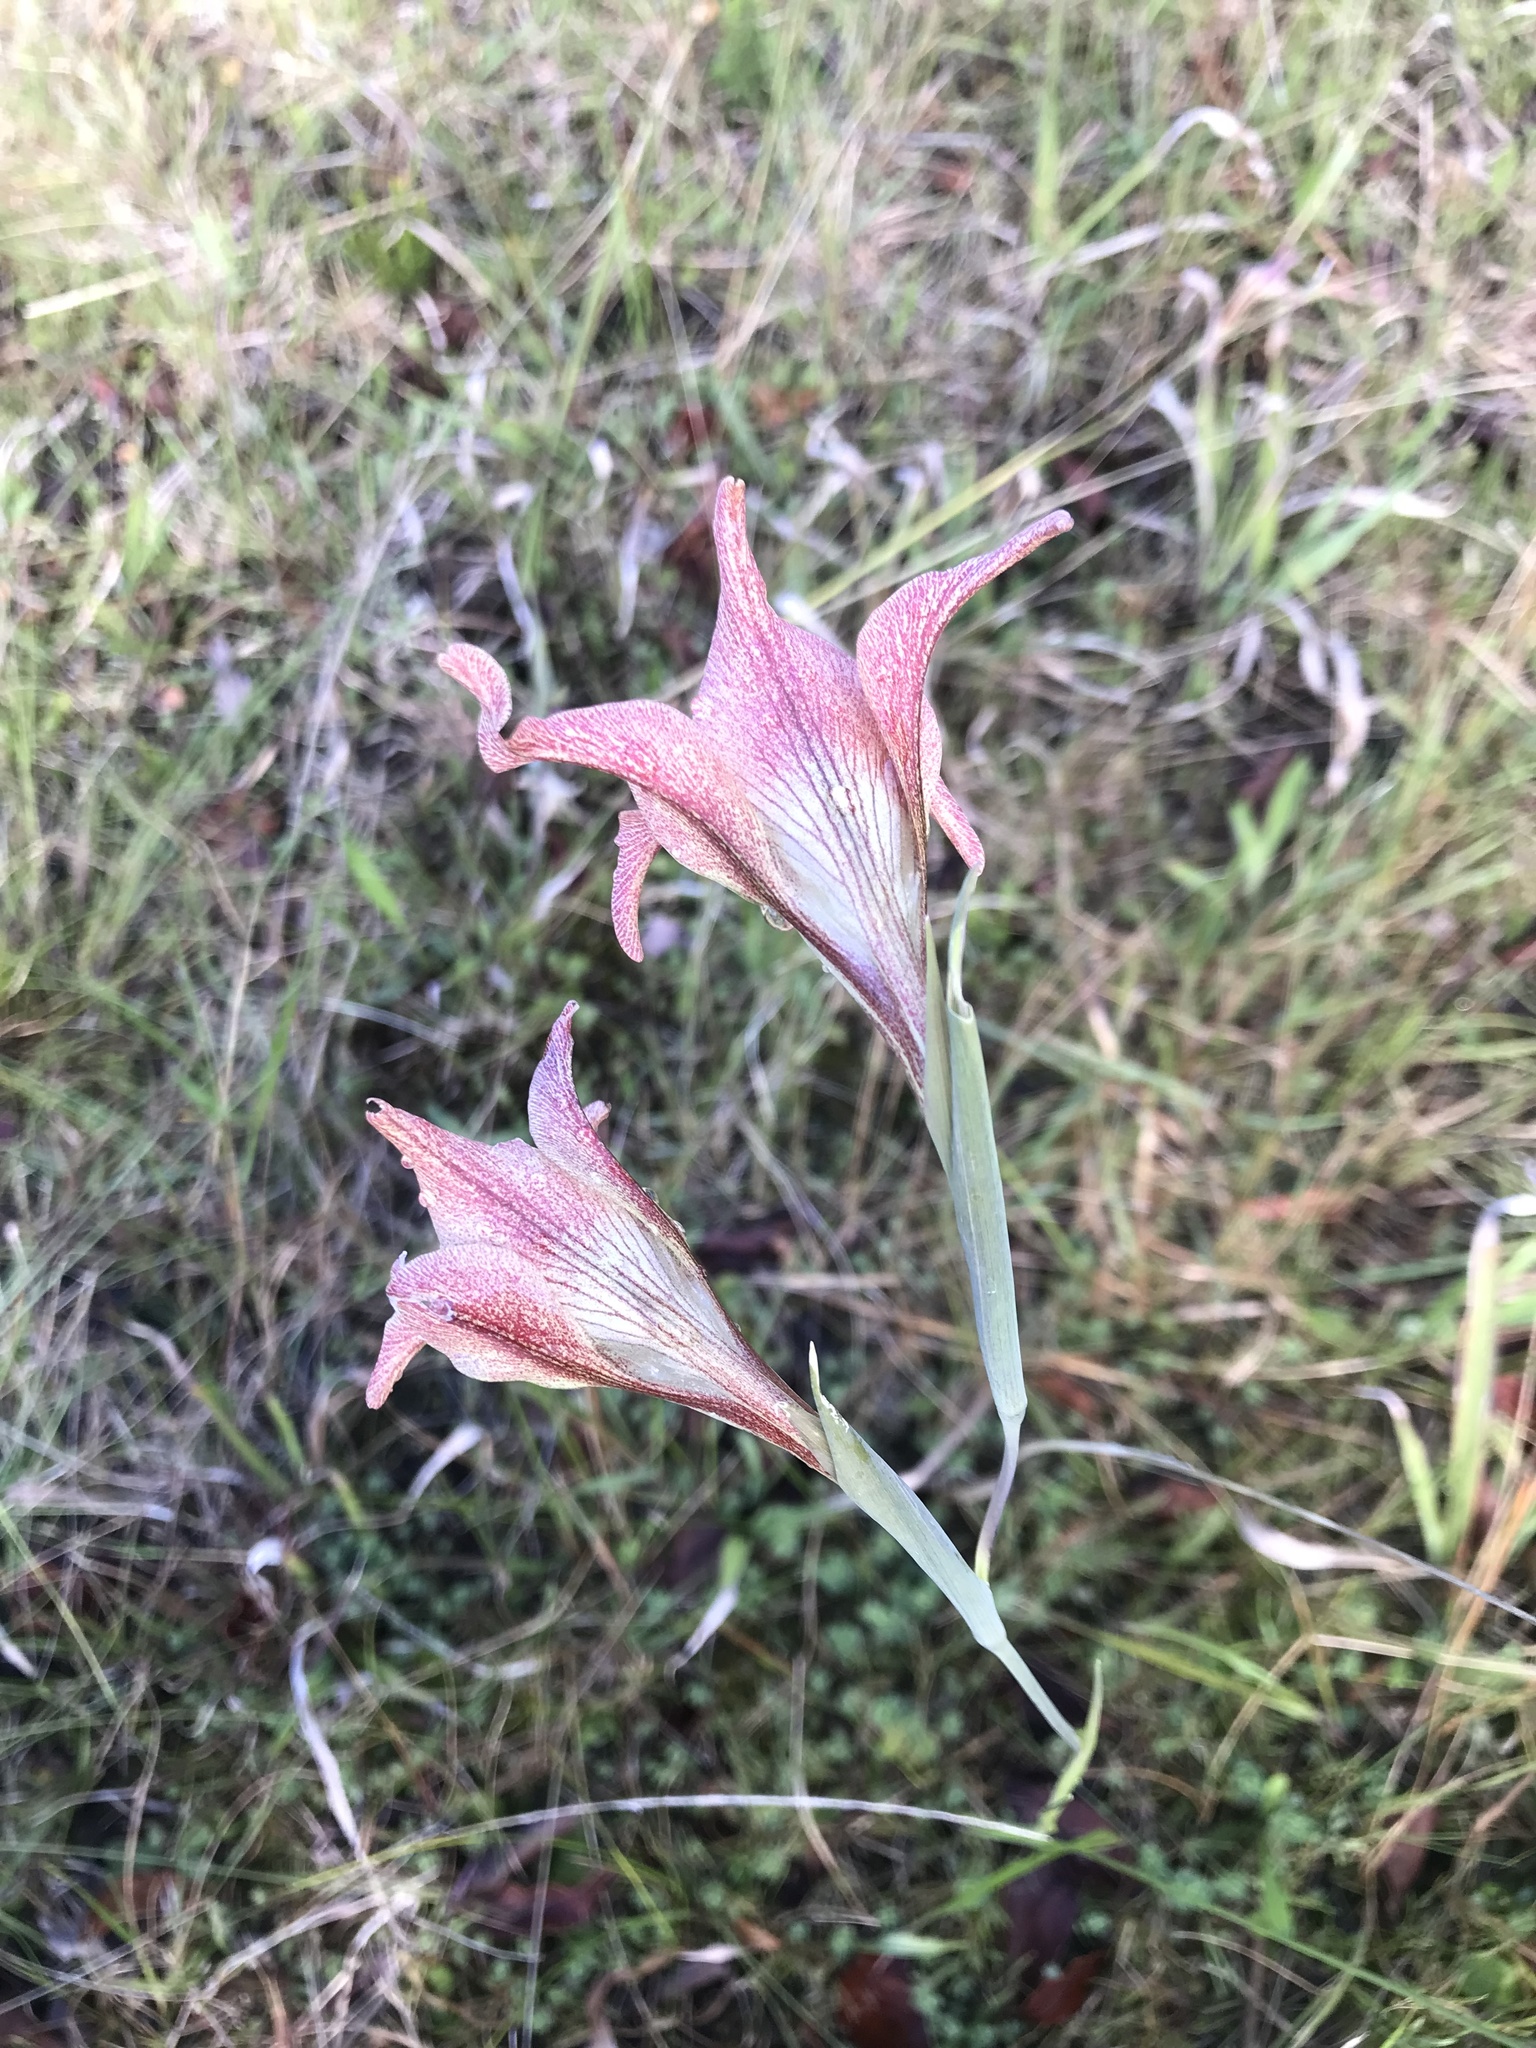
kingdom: Plantae
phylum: Tracheophyta
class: Liliopsida
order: Asparagales
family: Iridaceae
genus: Gladiolus
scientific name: Gladiolus liliaceus
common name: Large brown afrikaner
